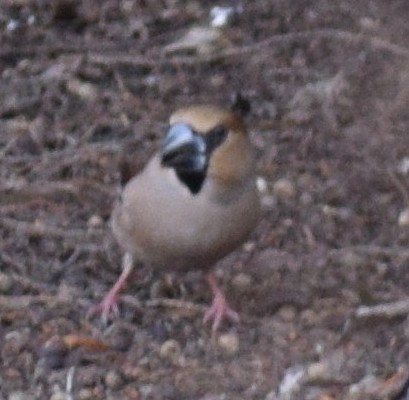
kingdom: Animalia
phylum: Chordata
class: Aves
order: Passeriformes
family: Fringillidae
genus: Coccothraustes
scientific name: Coccothraustes coccothraustes
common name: Hawfinch
